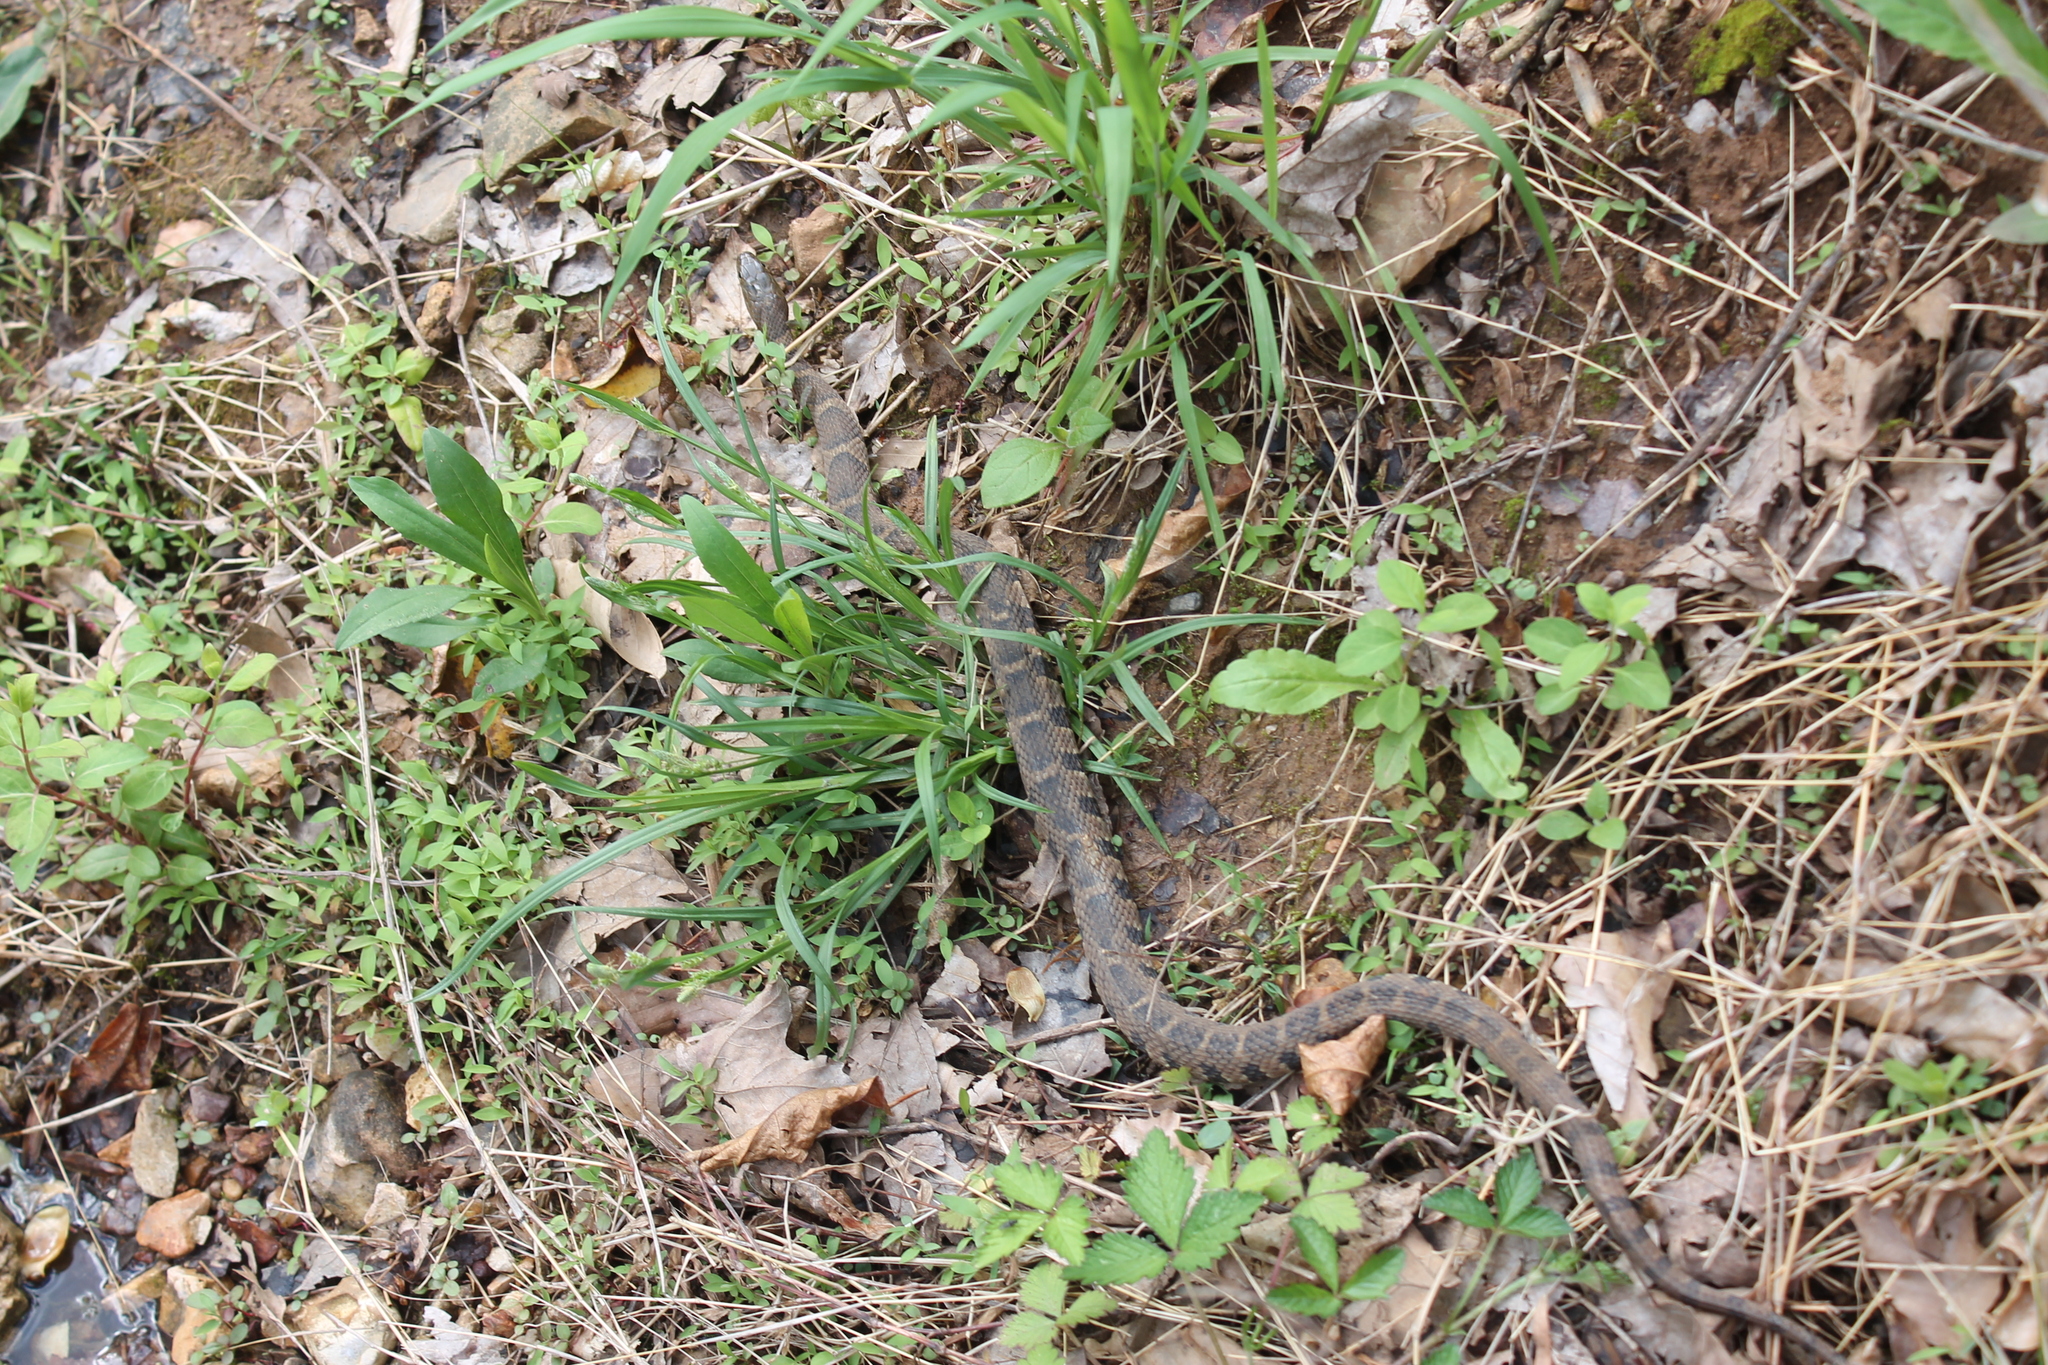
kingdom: Animalia
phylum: Chordata
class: Squamata
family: Colubridae
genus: Nerodia
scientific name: Nerodia sipedon
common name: Northern water snake
